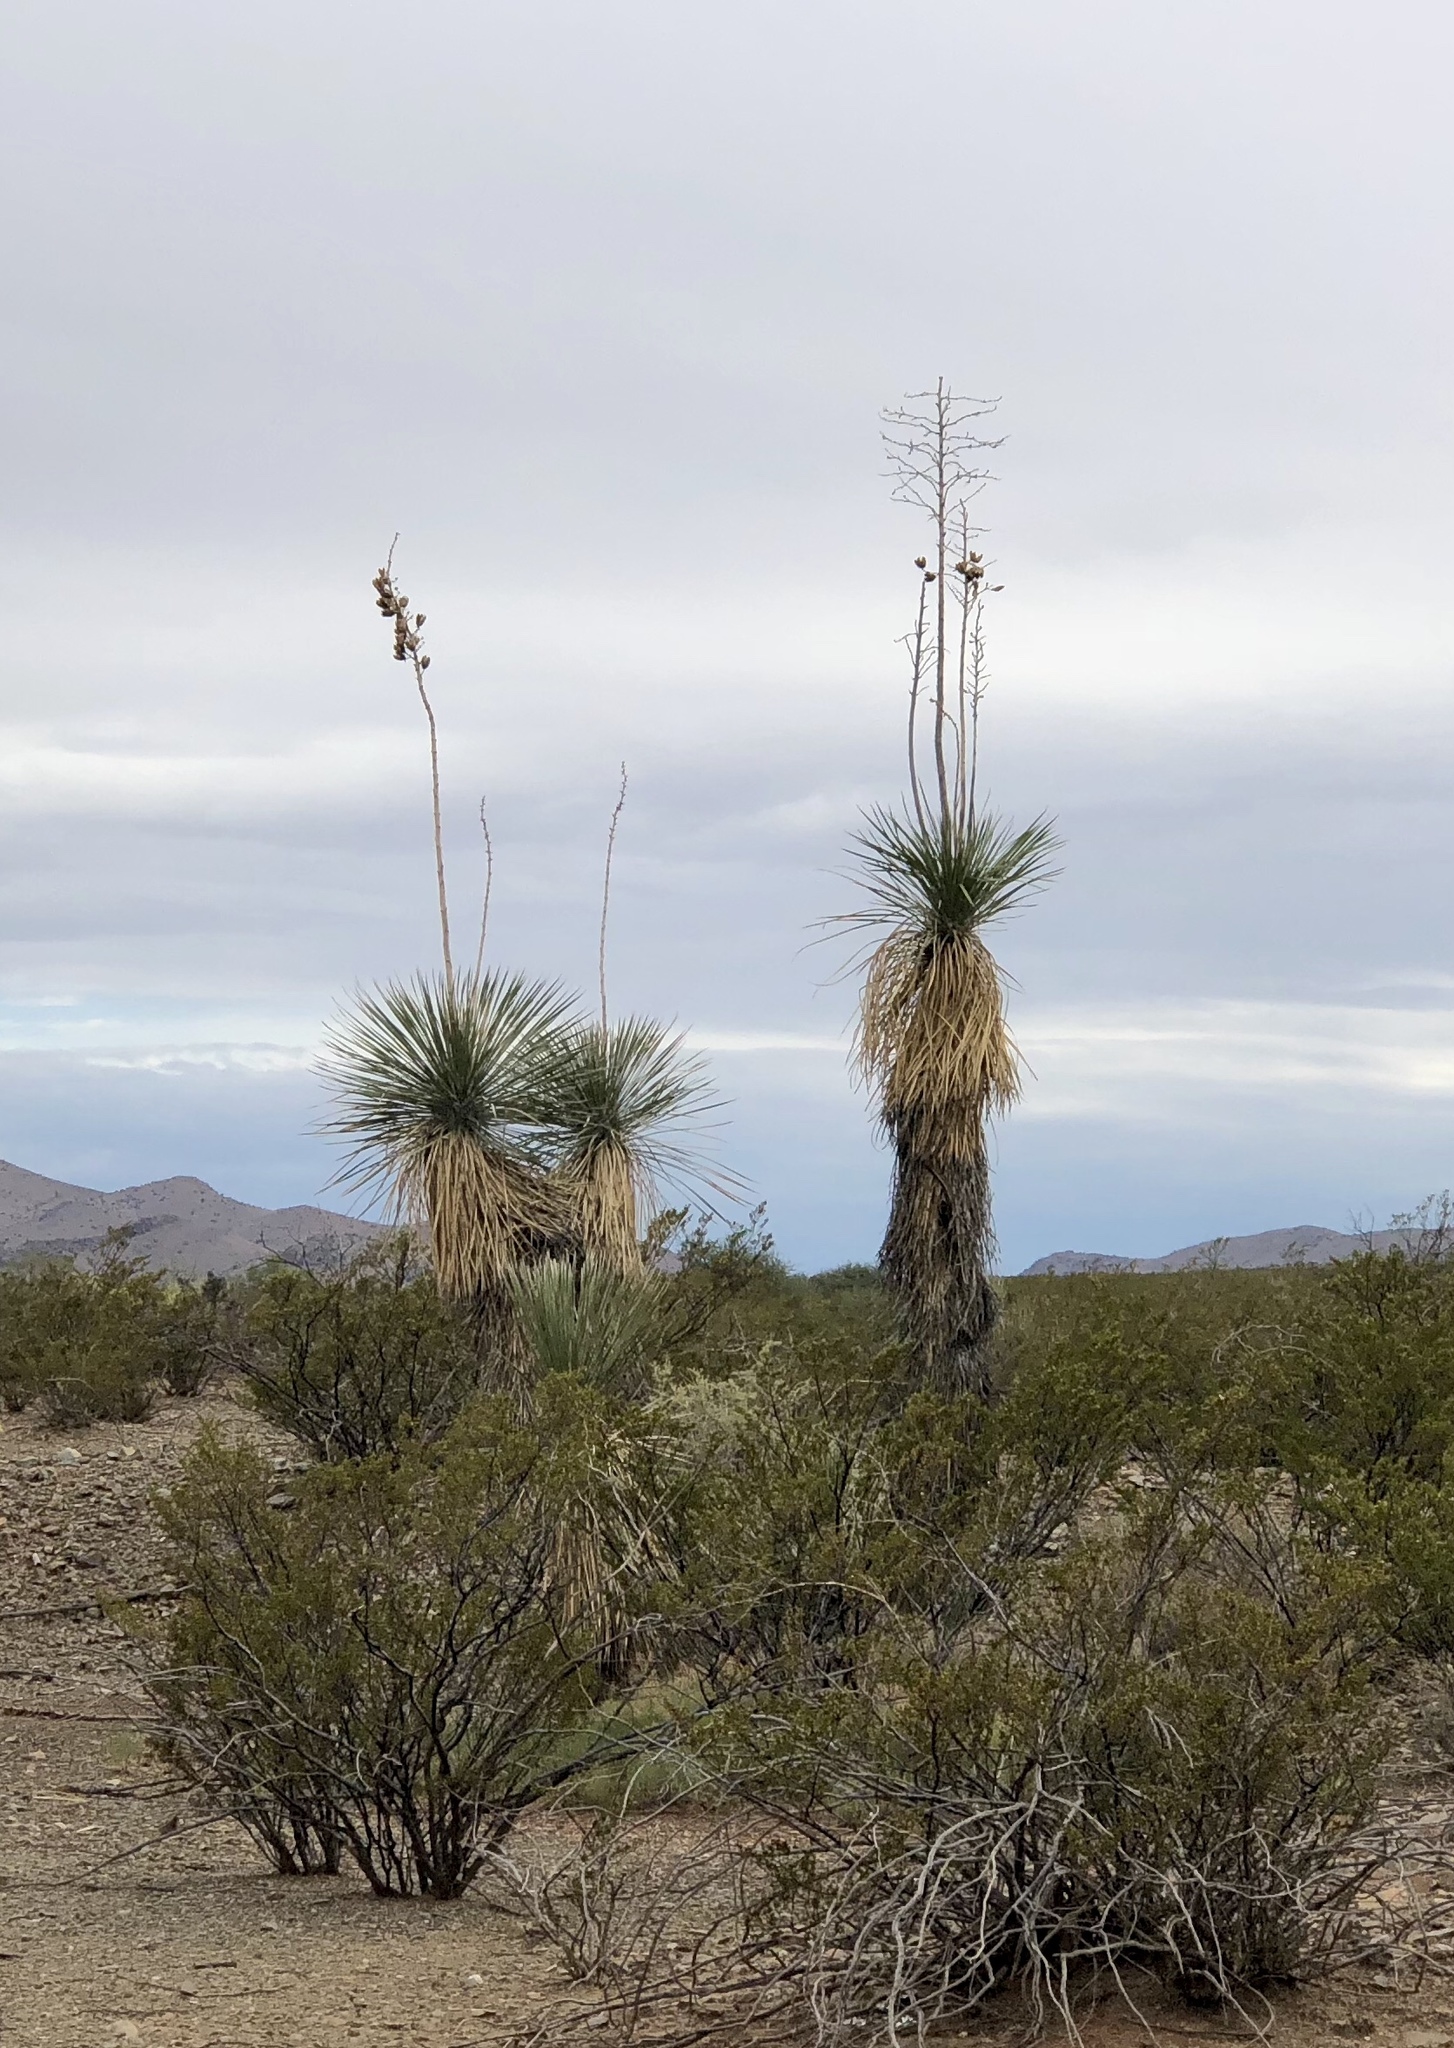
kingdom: Plantae
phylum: Tracheophyta
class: Magnoliopsida
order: Zygophyllales
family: Zygophyllaceae
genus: Larrea
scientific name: Larrea tridentata
